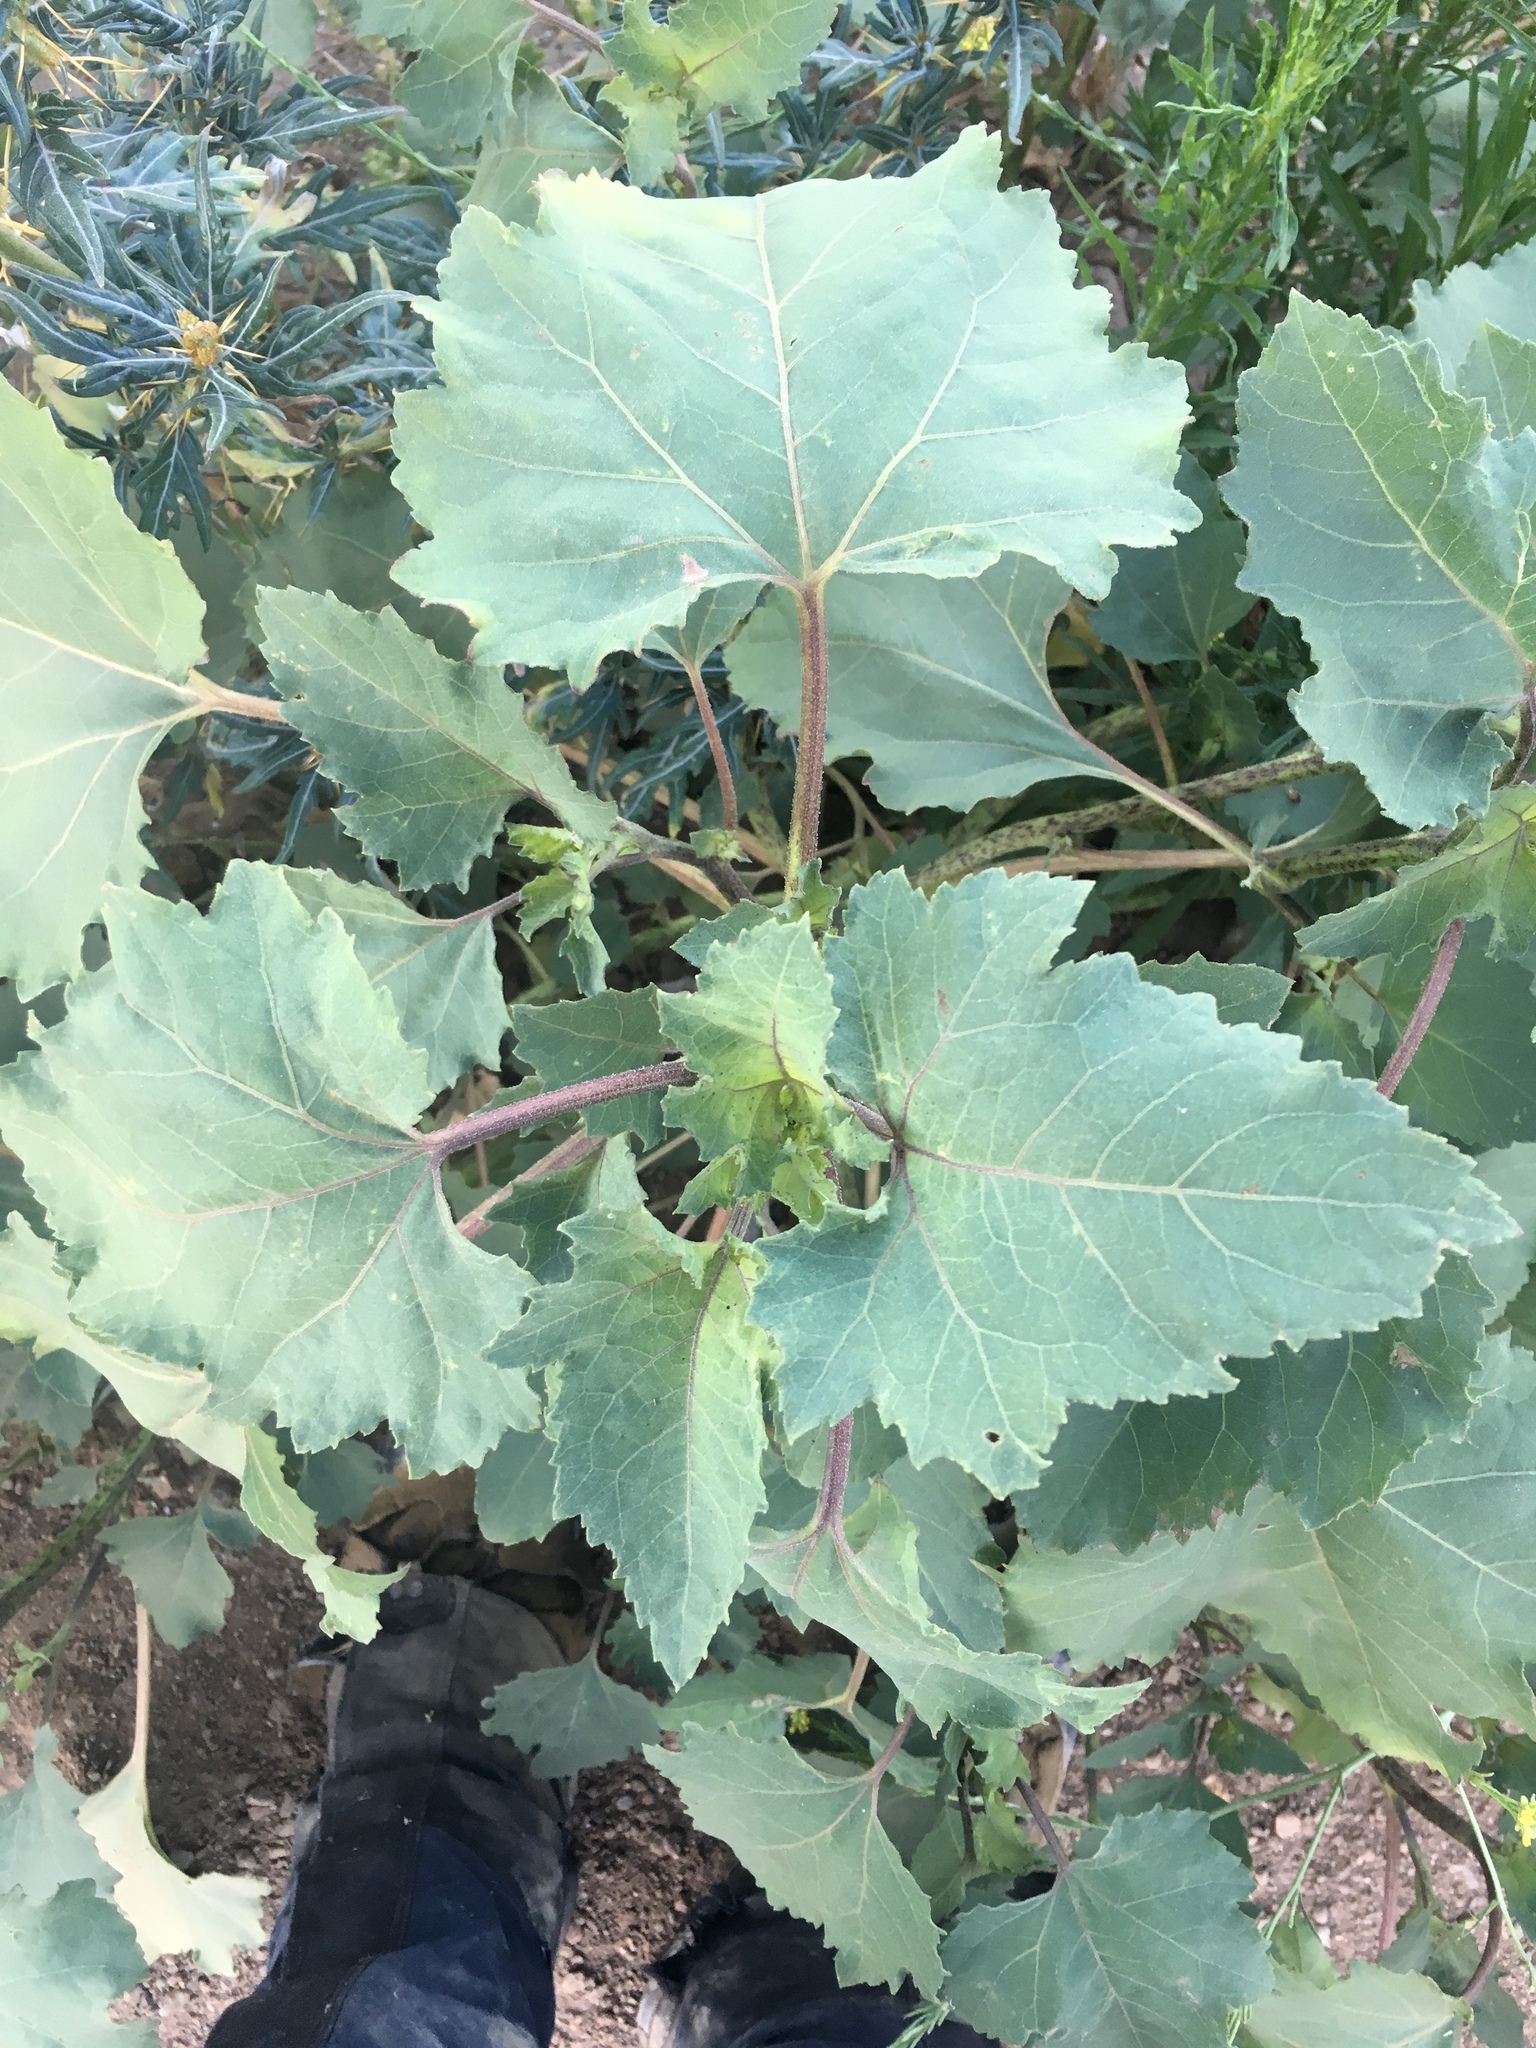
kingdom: Plantae
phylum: Tracheophyta
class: Magnoliopsida
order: Asterales
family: Asteraceae
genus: Xanthium
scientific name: Xanthium strumarium
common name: Rough cocklebur
